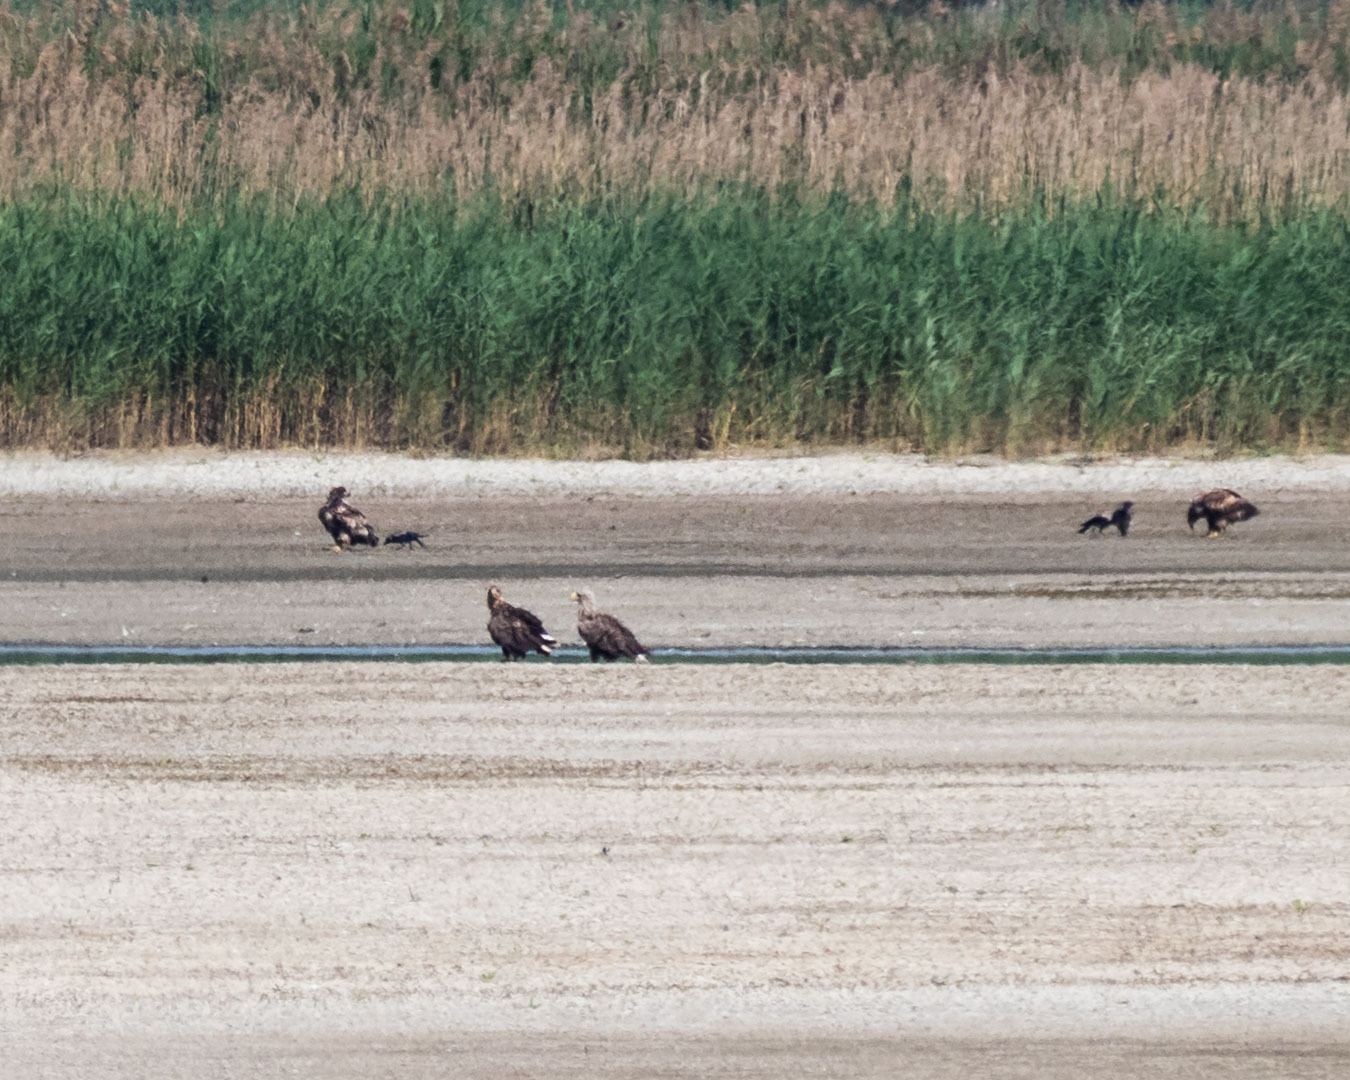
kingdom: Animalia
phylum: Chordata
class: Aves
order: Accipitriformes
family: Accipitridae
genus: Haliaeetus
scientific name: Haliaeetus albicilla
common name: White-tailed eagle
